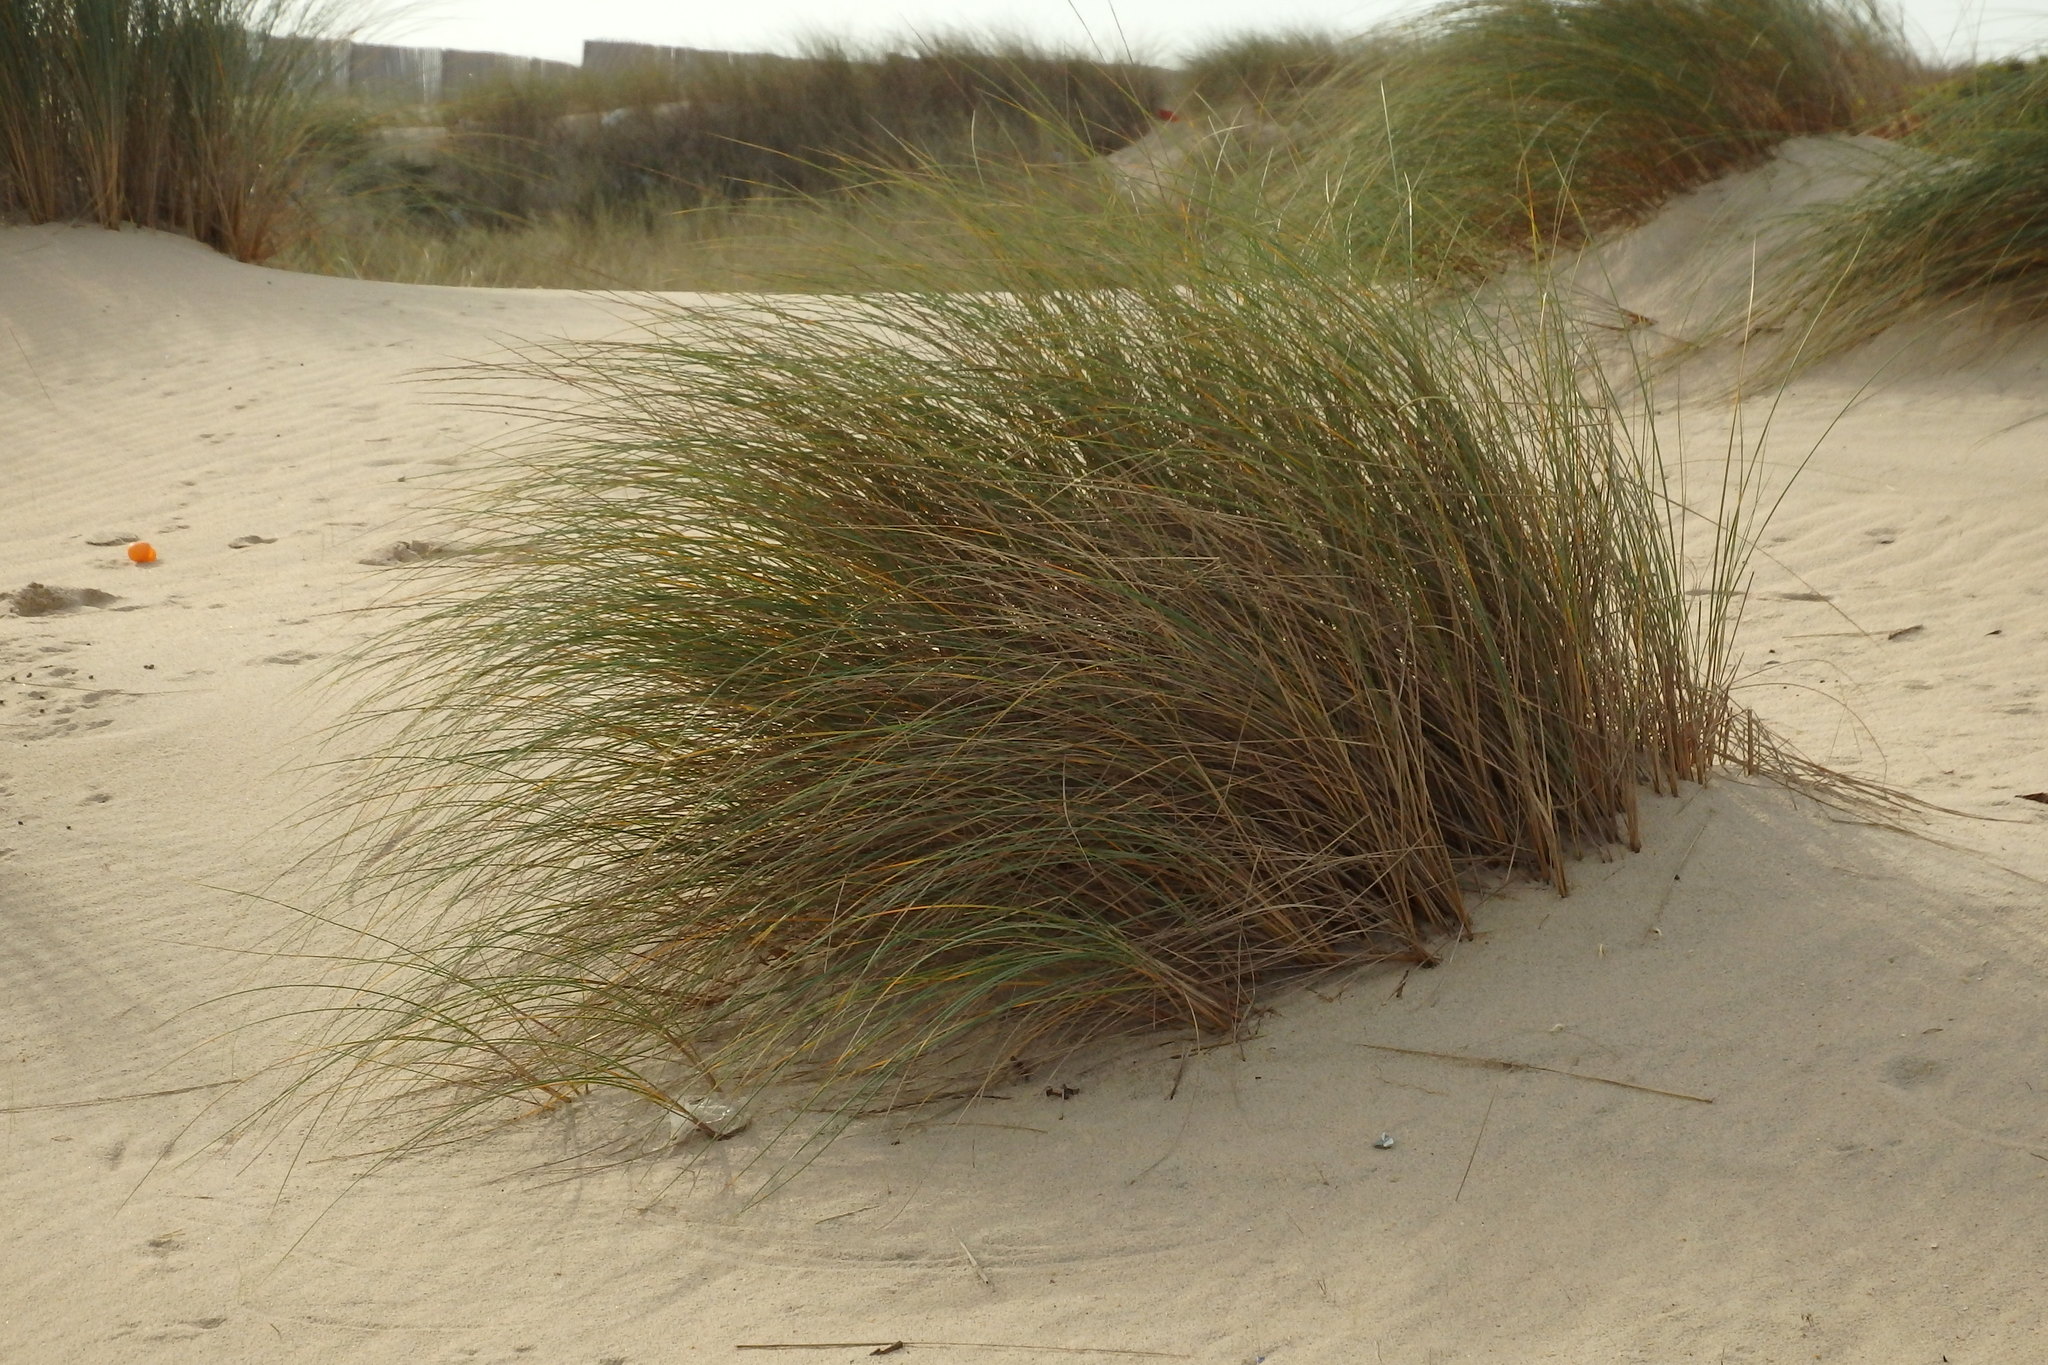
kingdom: Plantae
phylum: Tracheophyta
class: Liliopsida
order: Poales
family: Poaceae
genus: Calamagrostis
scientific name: Calamagrostis arenaria
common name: European beachgrass
